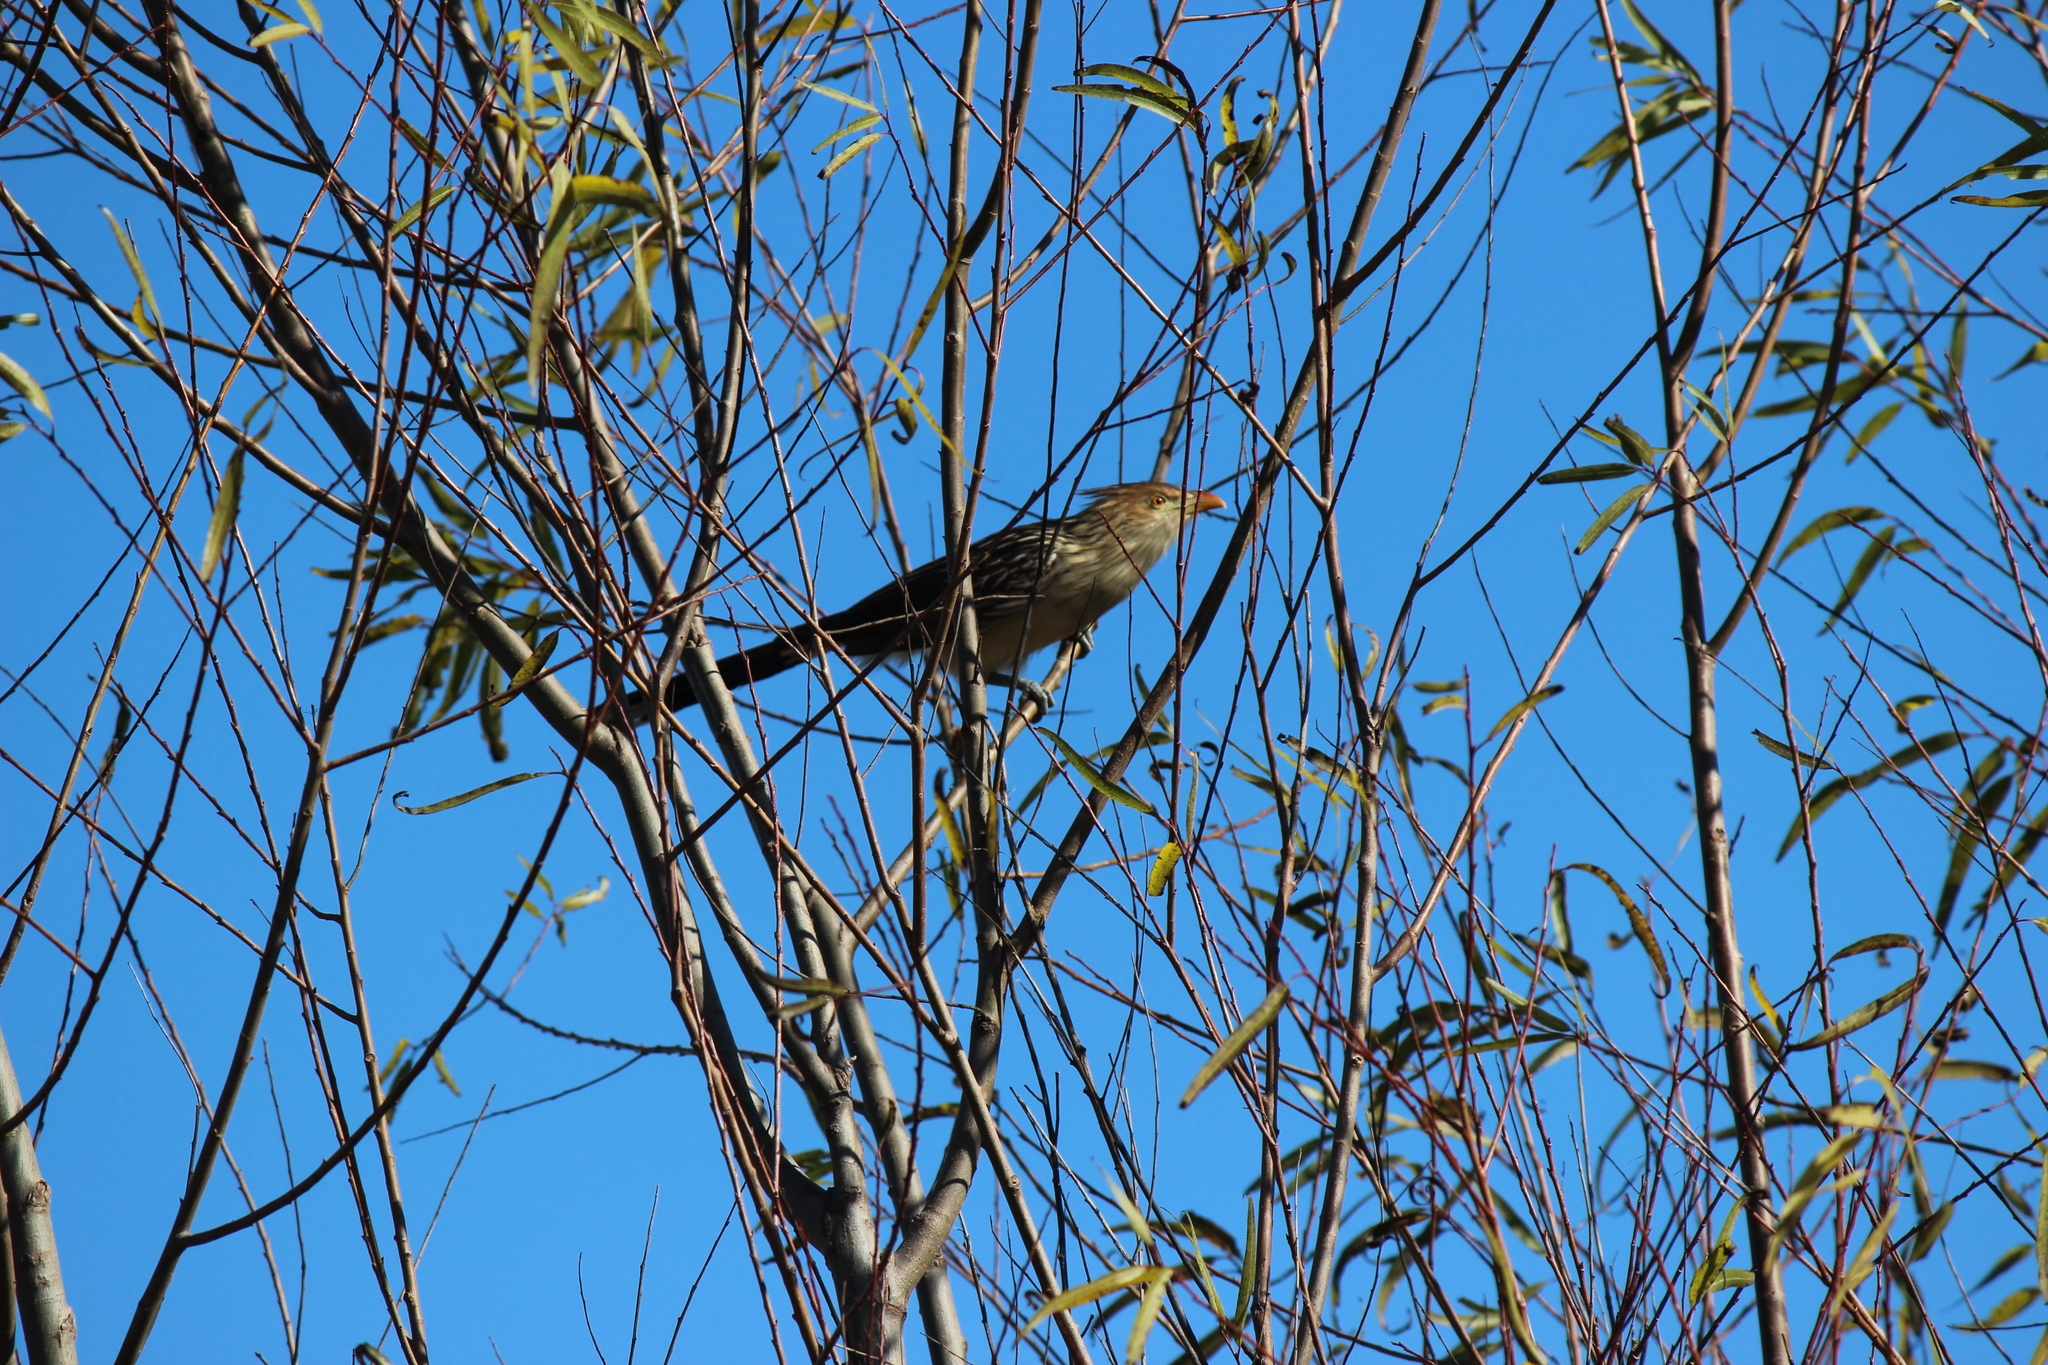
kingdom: Animalia
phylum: Chordata
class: Aves
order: Cuculiformes
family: Cuculidae
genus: Guira
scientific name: Guira guira
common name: Guira cuckoo
